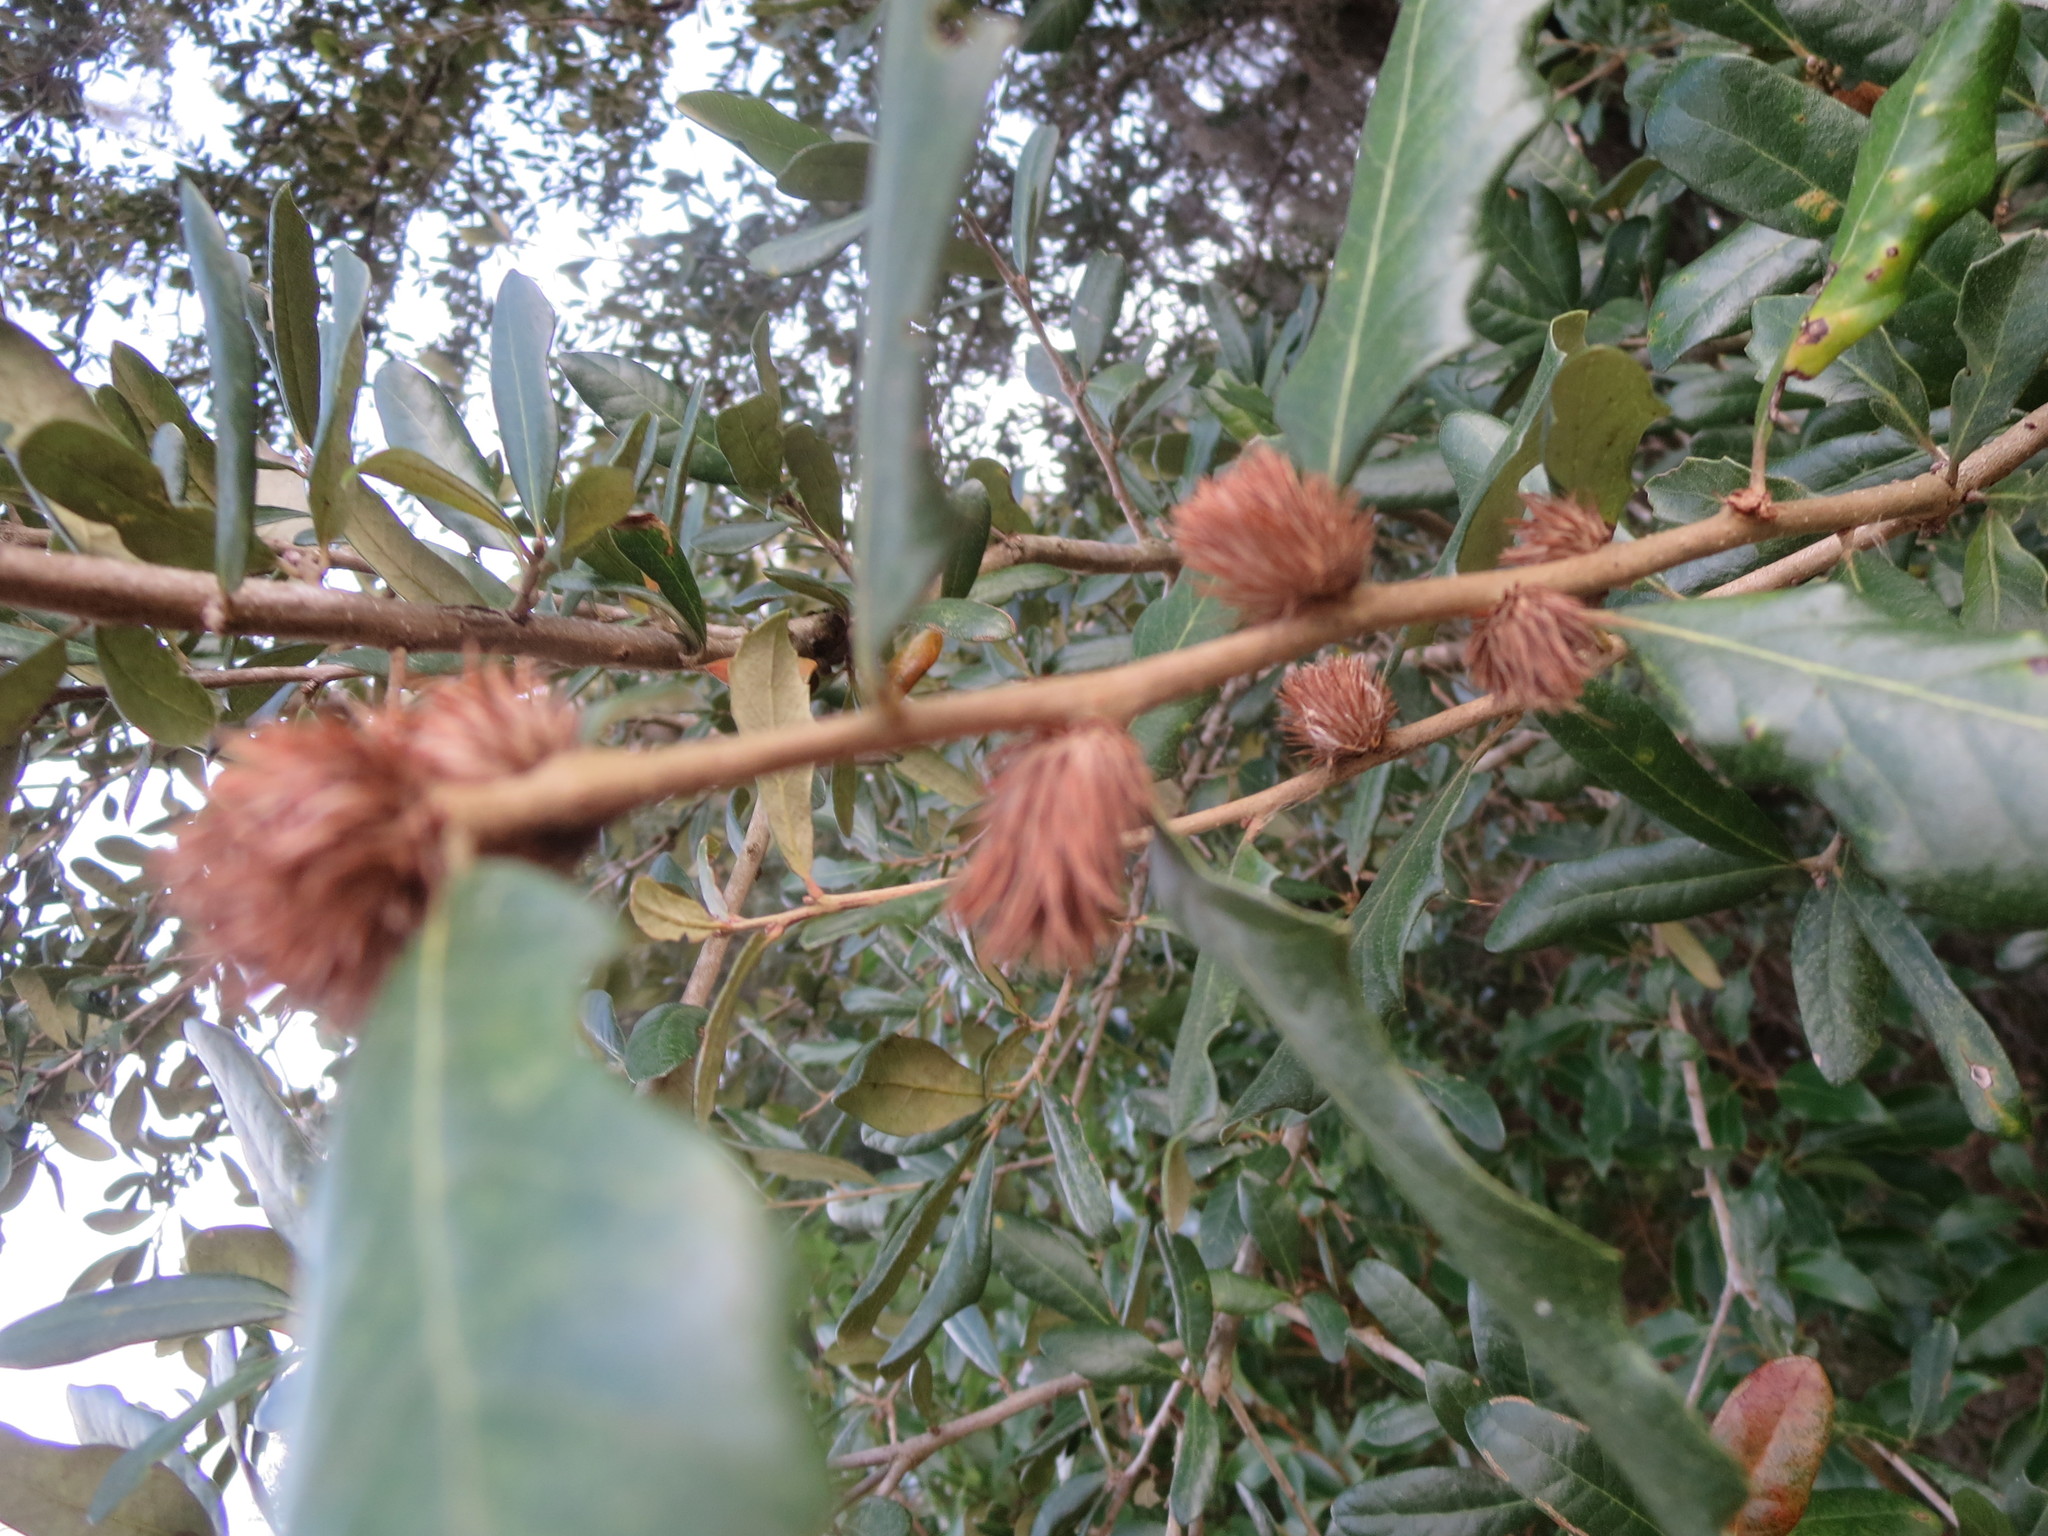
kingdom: Plantae
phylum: Tracheophyta
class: Magnoliopsida
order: Fagales
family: Fagaceae
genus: Quercus
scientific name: Quercus virginiana
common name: Southern live oak
